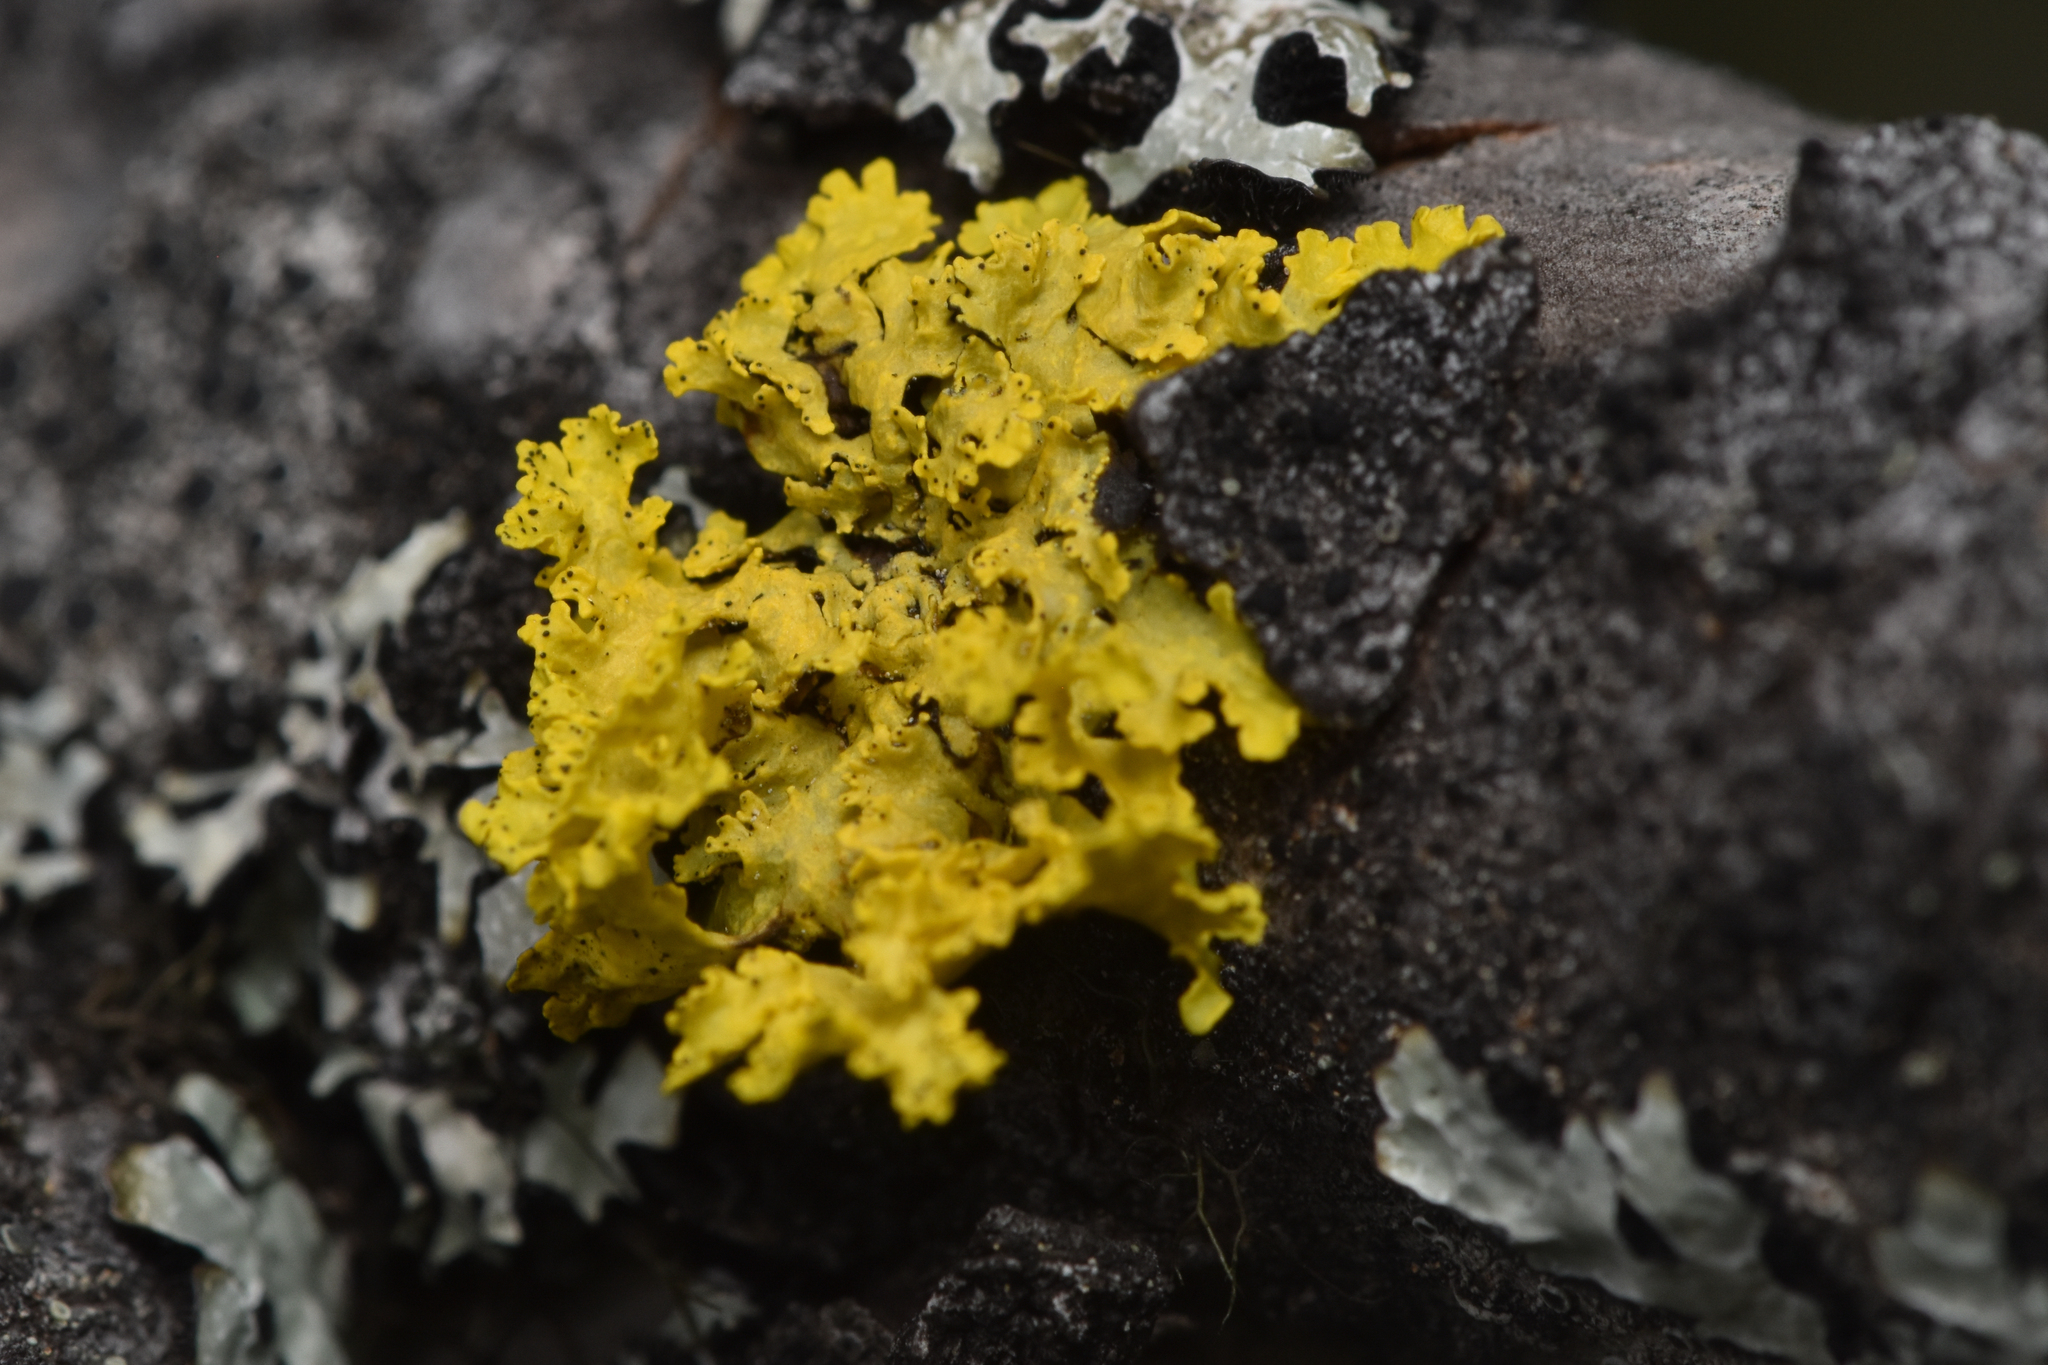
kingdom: Fungi
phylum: Ascomycota
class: Lecanoromycetes
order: Lecanorales
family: Parmeliaceae
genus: Vulpicida
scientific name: Vulpicida canadensis
